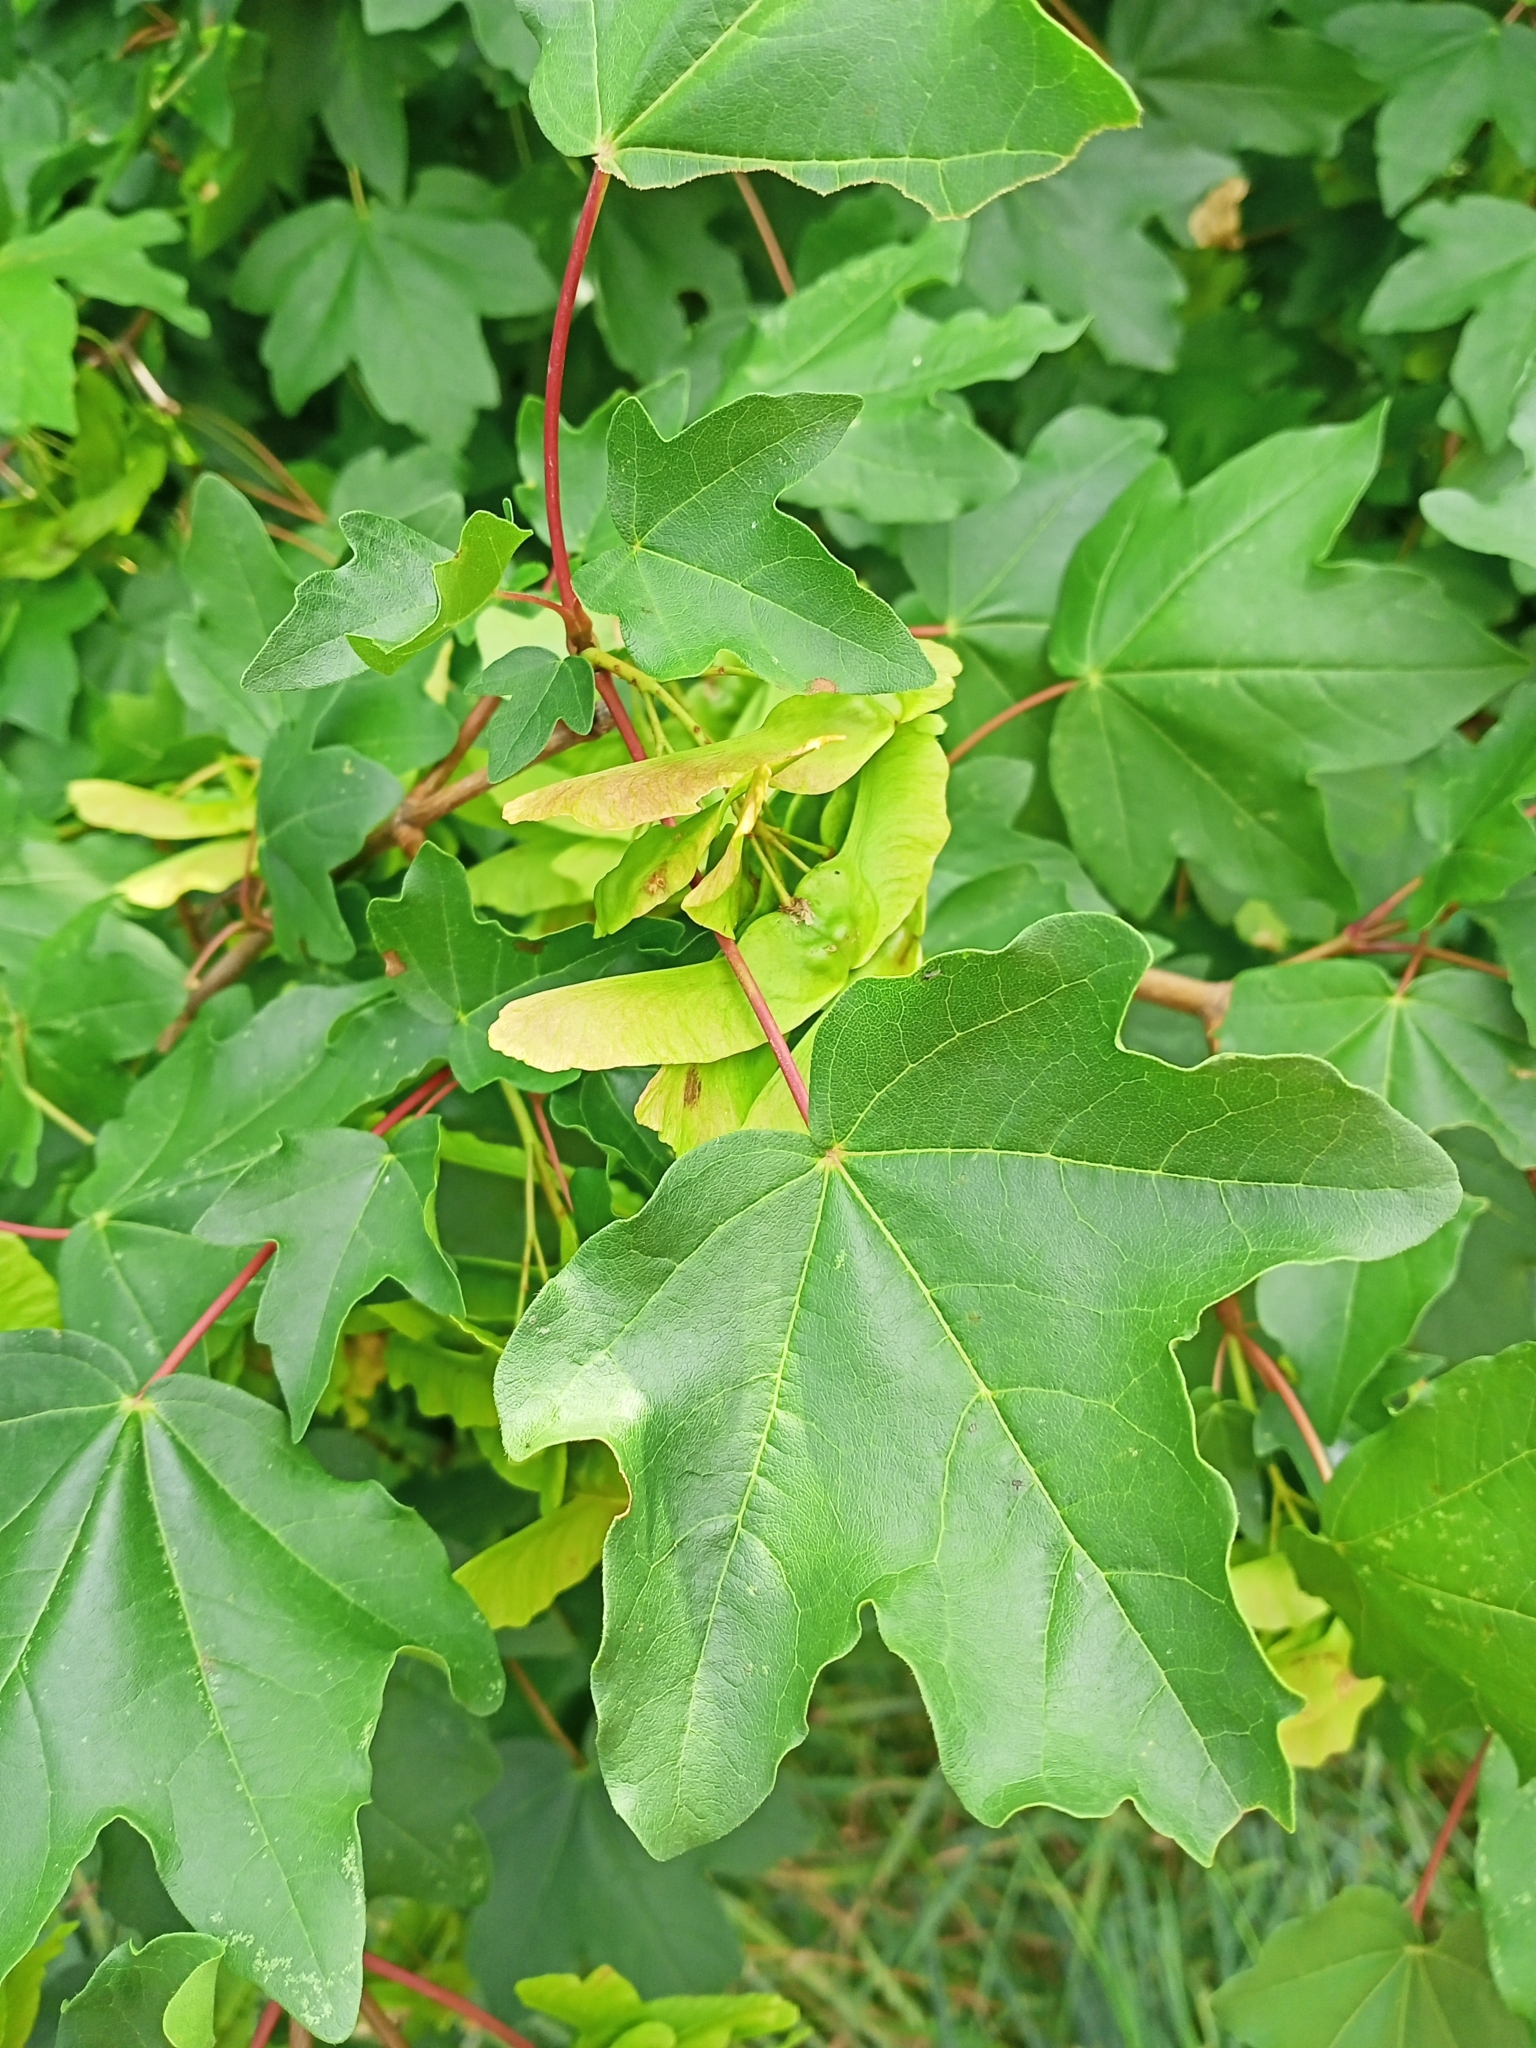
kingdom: Plantae
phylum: Tracheophyta
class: Magnoliopsida
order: Sapindales
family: Sapindaceae
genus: Acer
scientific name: Acer campestre
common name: Field maple
